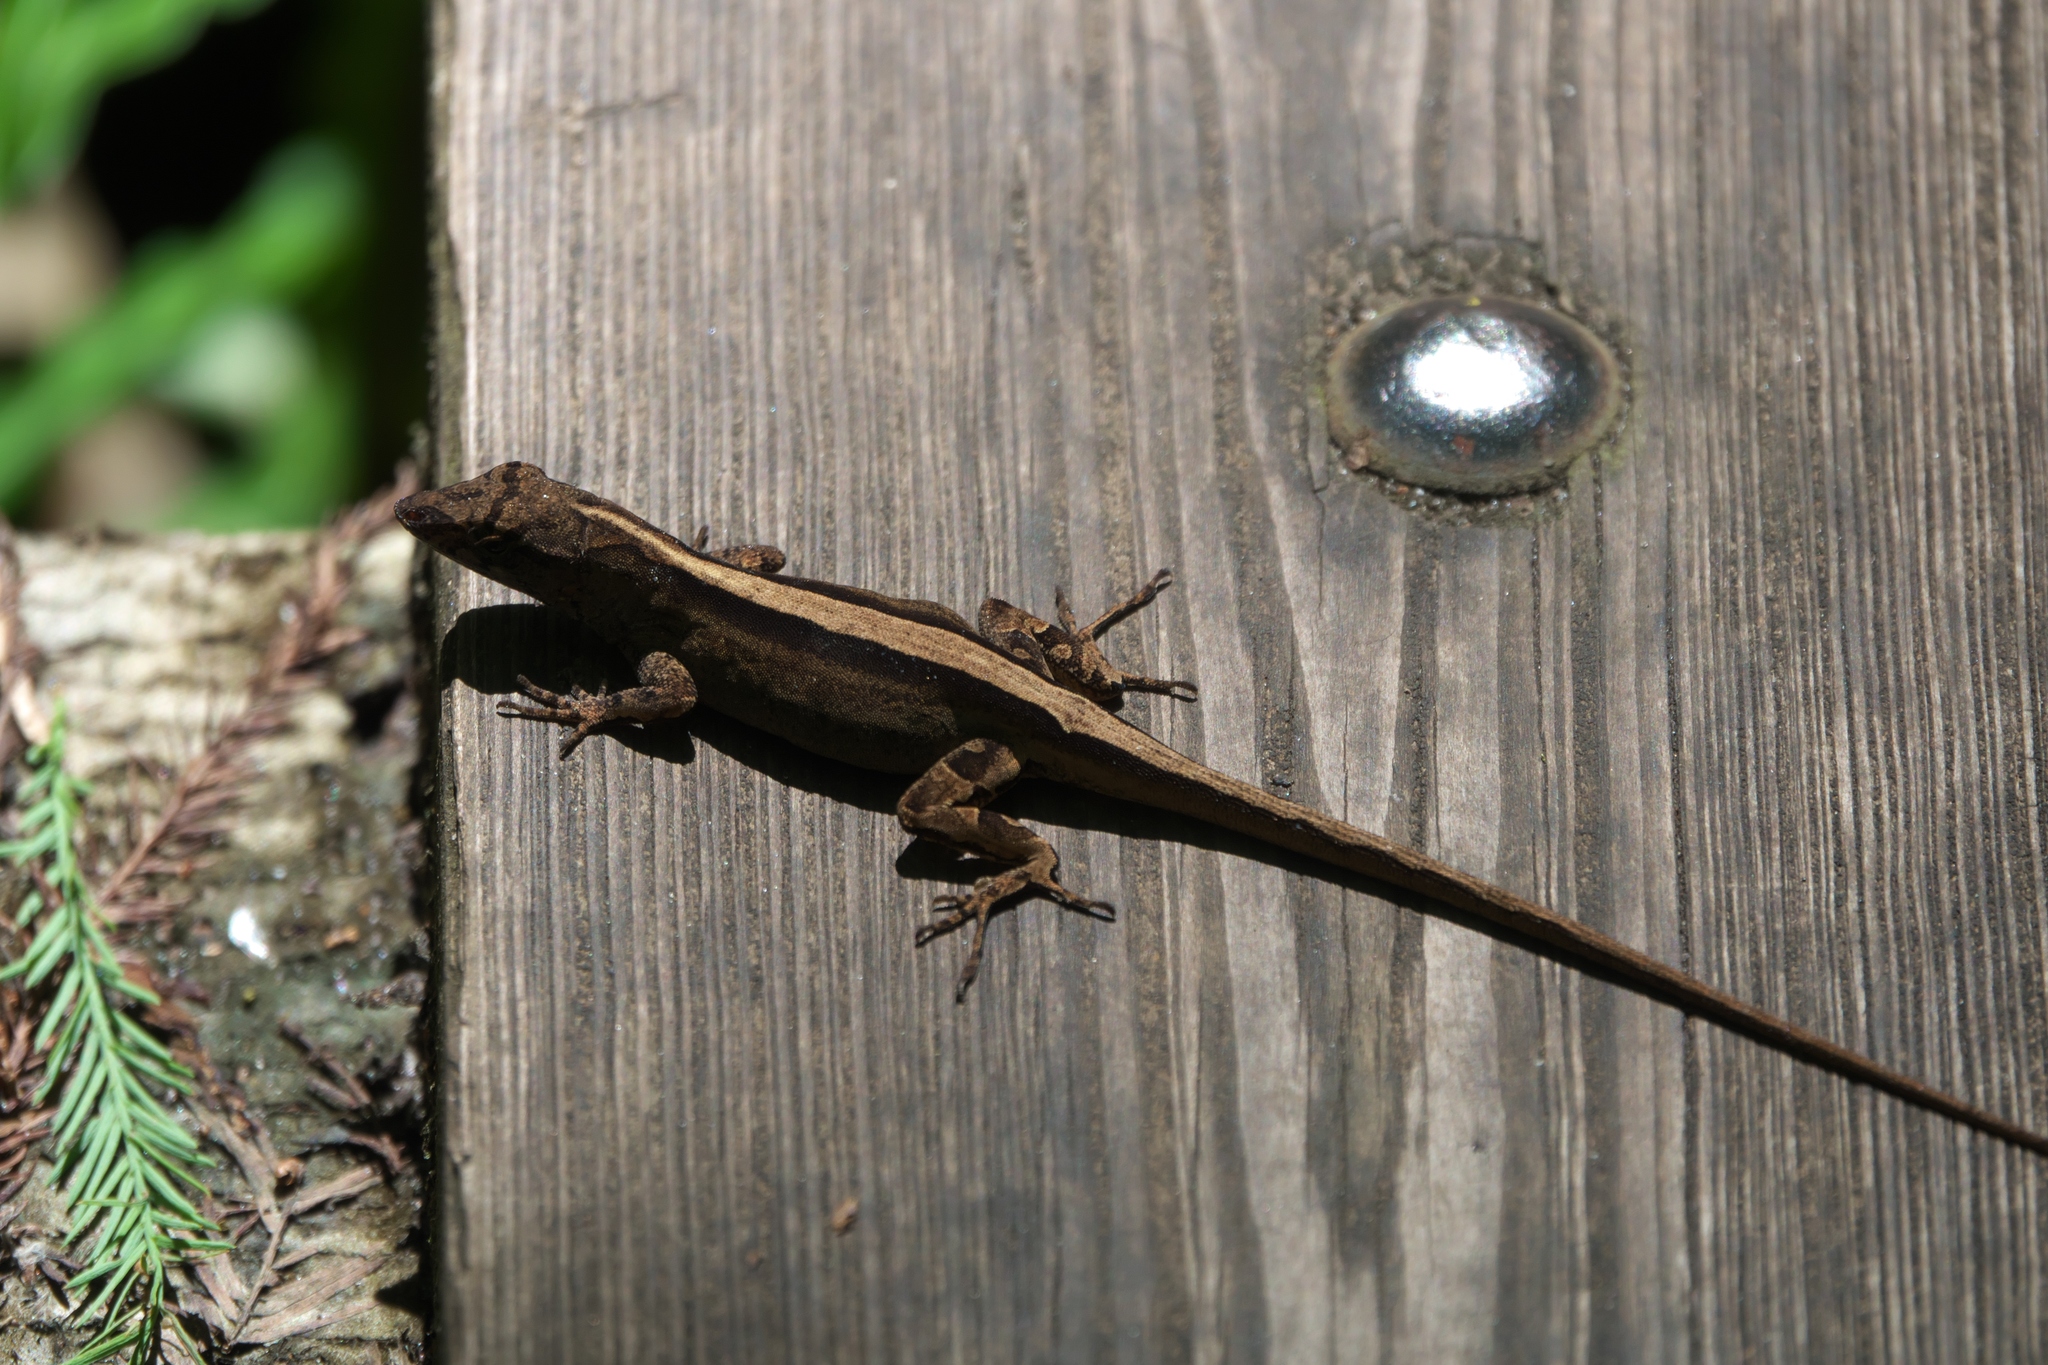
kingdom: Animalia
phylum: Chordata
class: Squamata
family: Dactyloidae
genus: Anolis
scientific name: Anolis sagrei
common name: Brown anole
